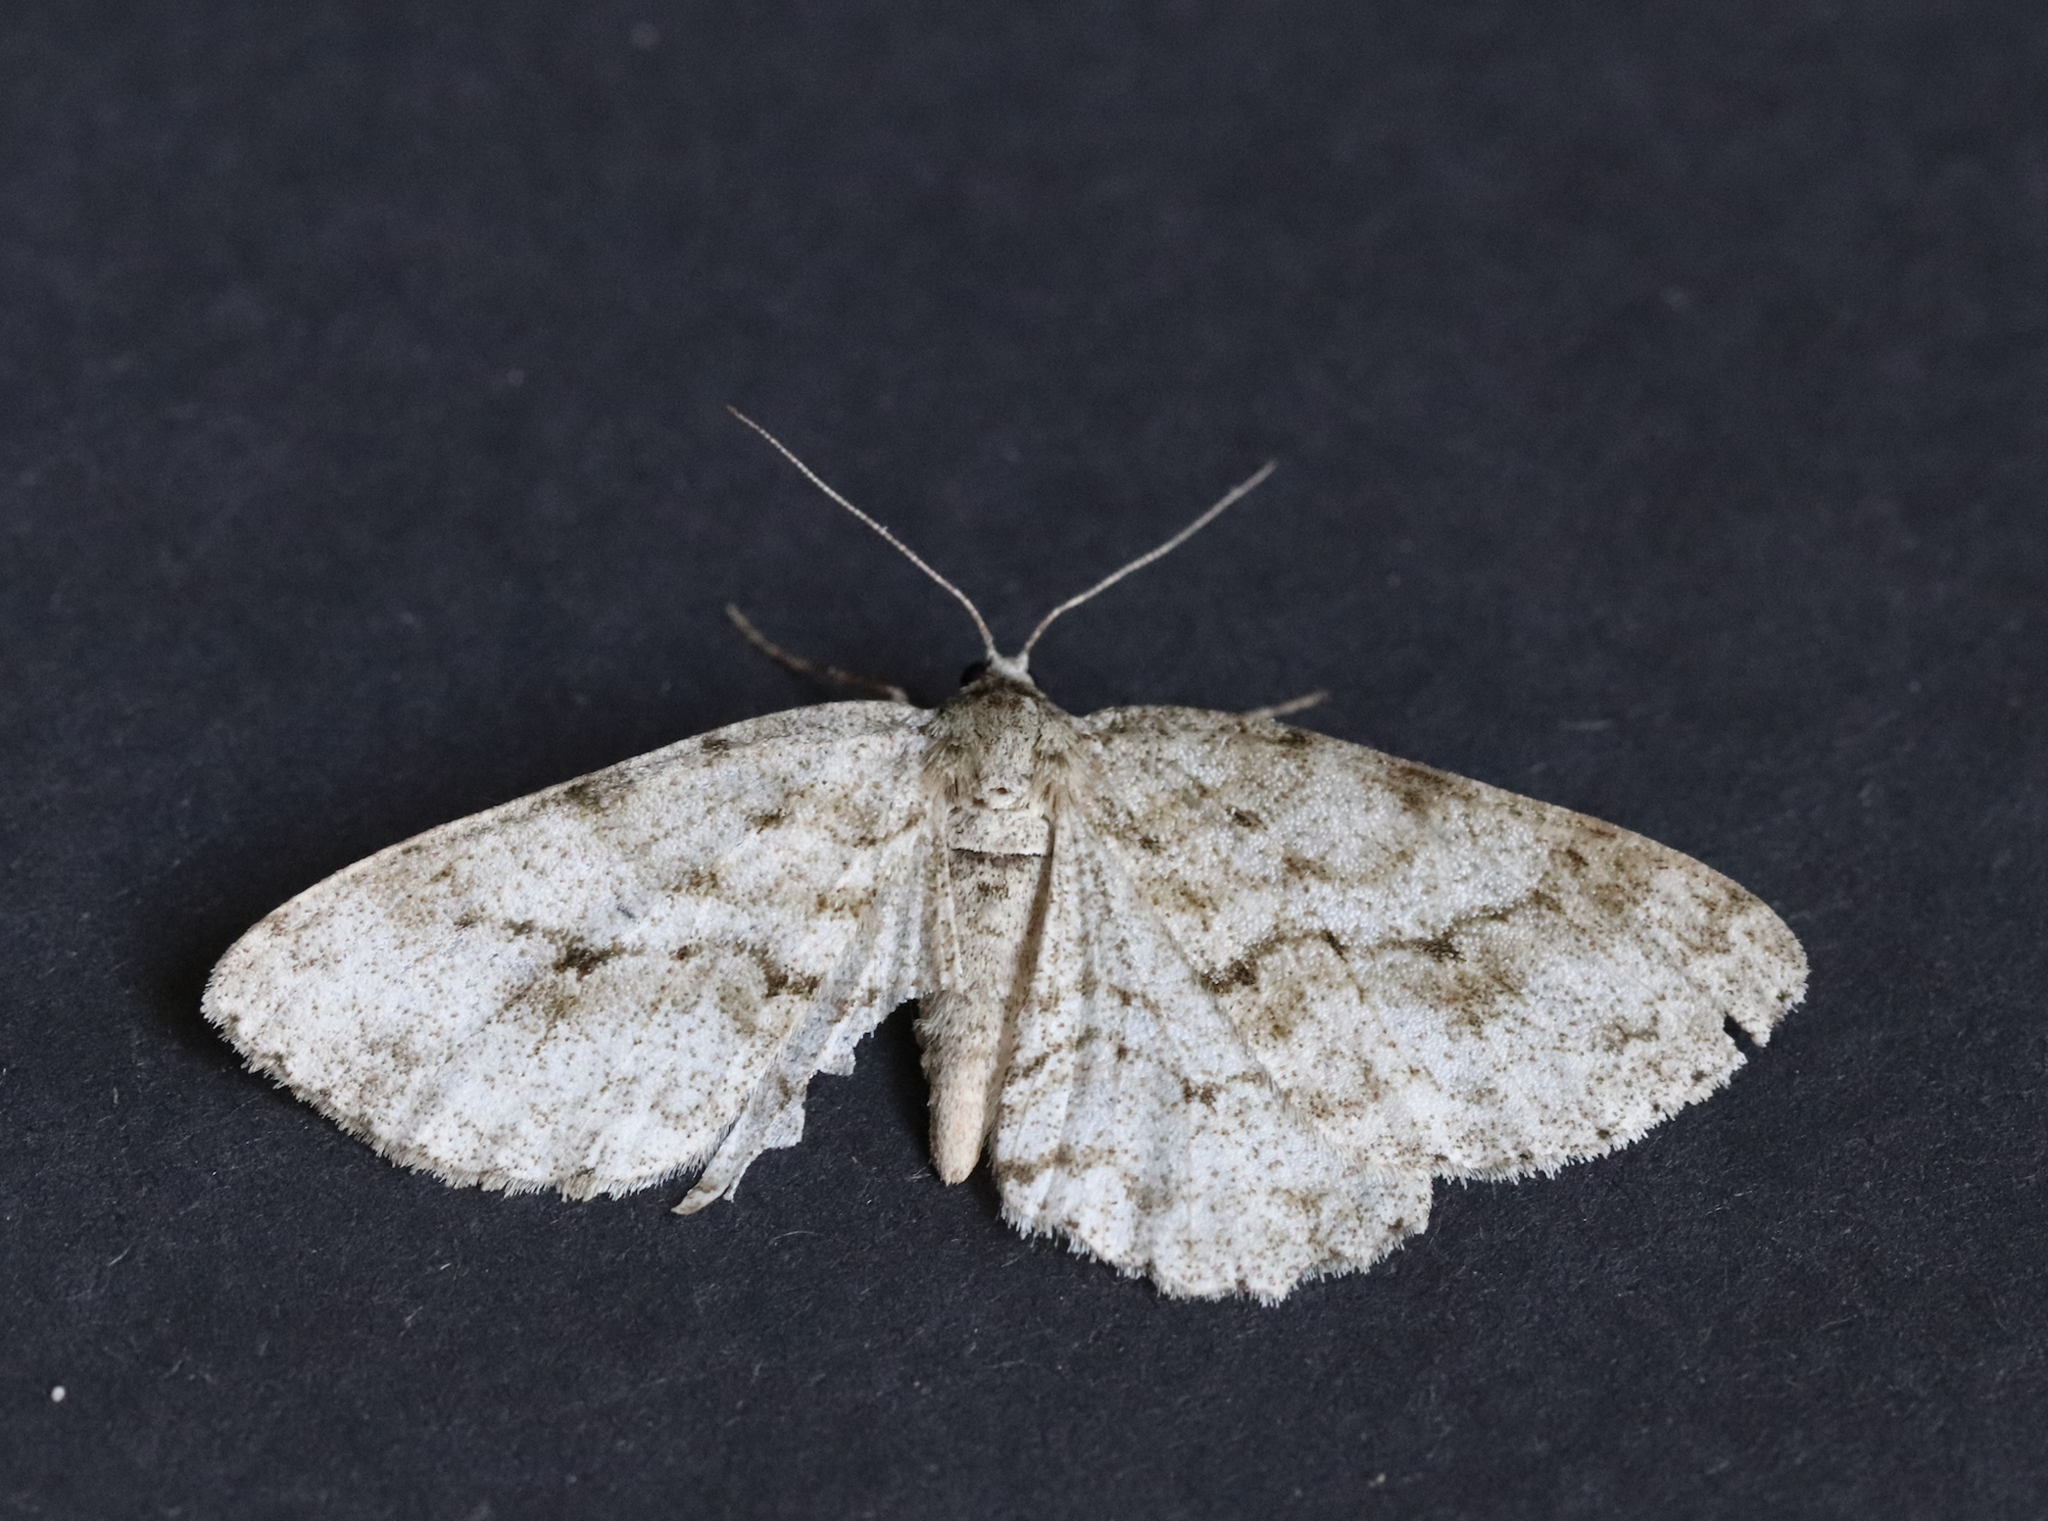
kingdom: Animalia
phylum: Arthropoda
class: Insecta
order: Lepidoptera
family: Geometridae
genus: Ectropis
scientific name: Ectropis crepuscularia
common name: Engrailed
